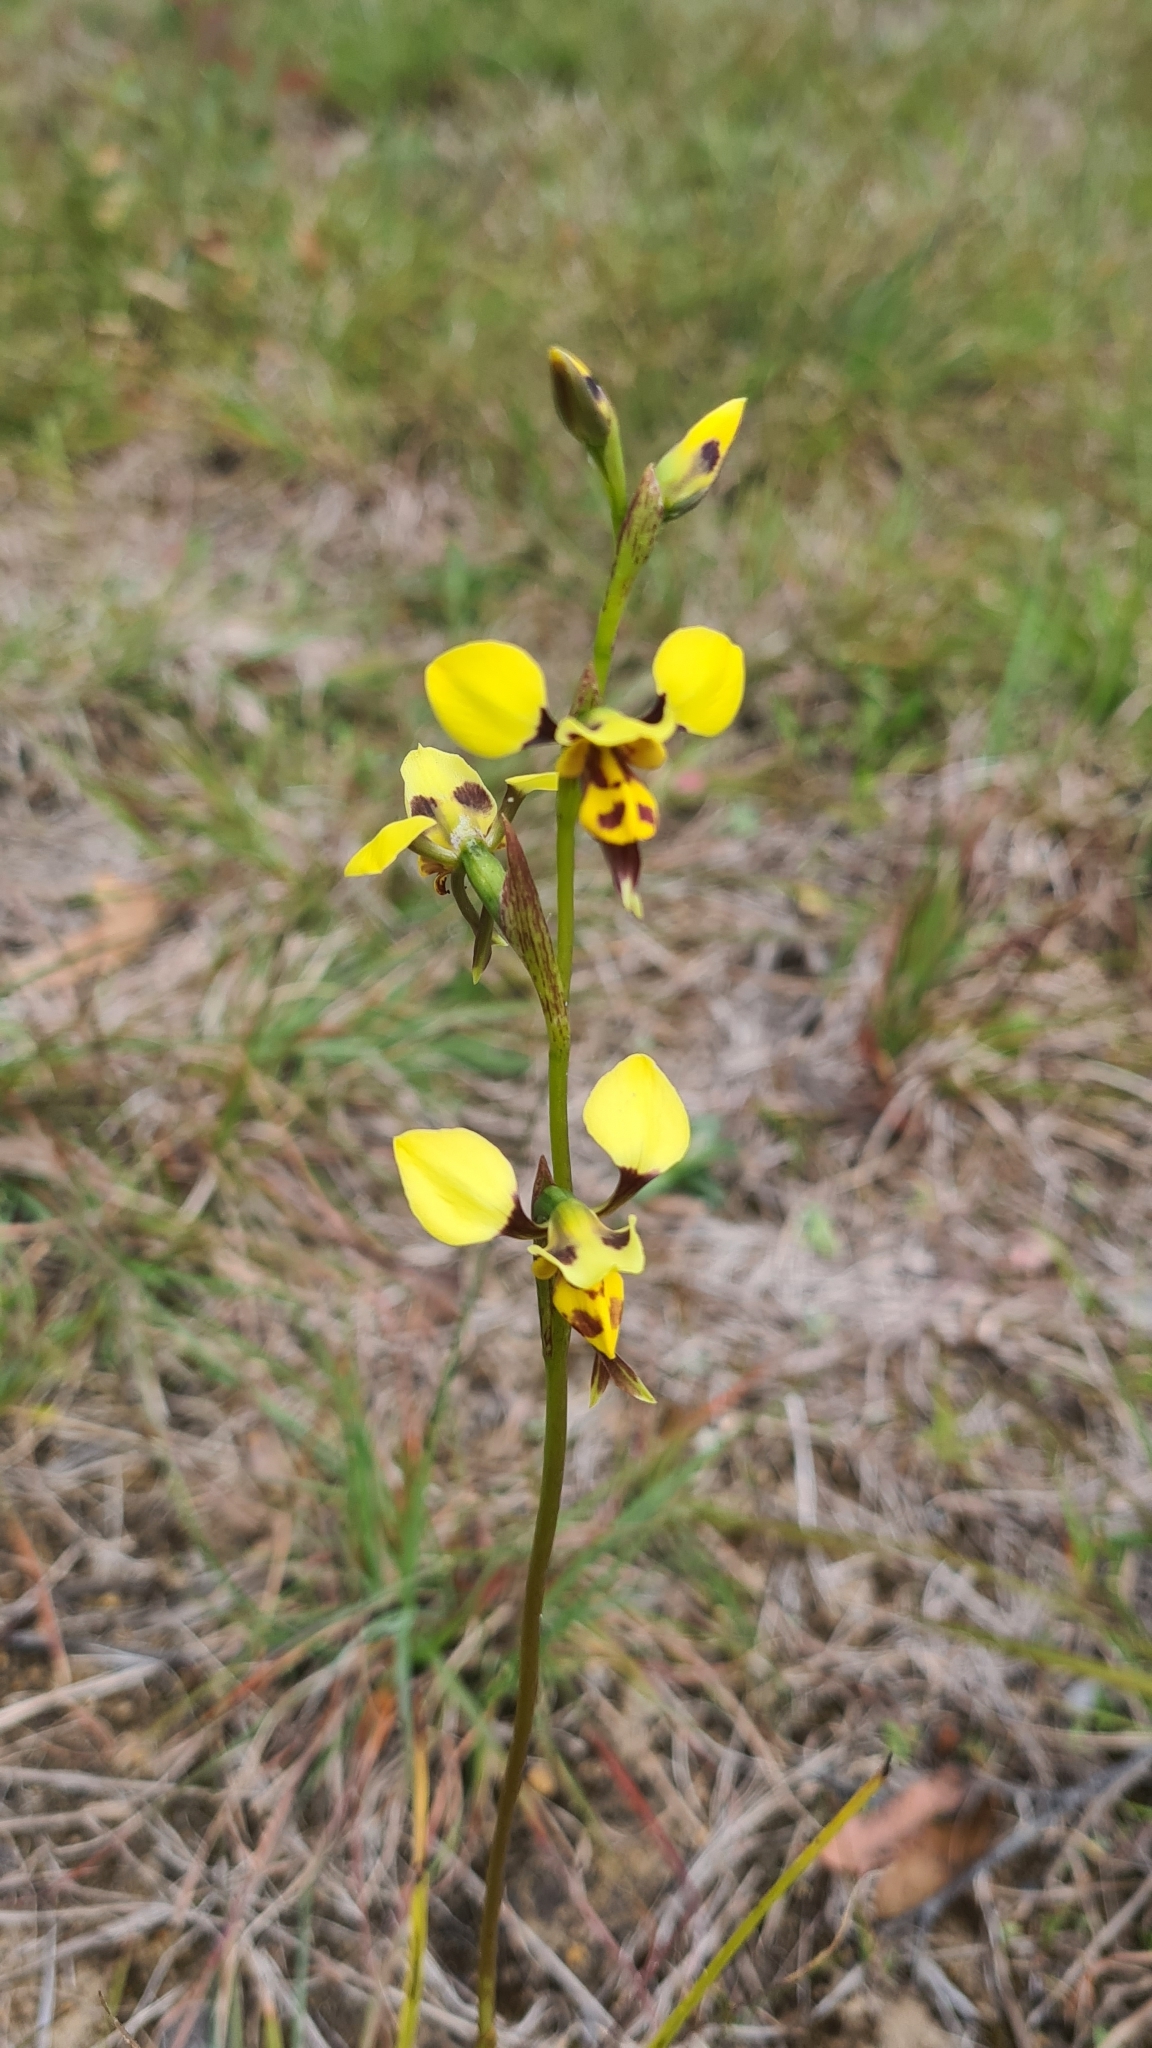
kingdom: Plantae
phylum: Tracheophyta
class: Liliopsida
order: Asparagales
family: Orchidaceae
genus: Diuris
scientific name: Diuris sulphurea
